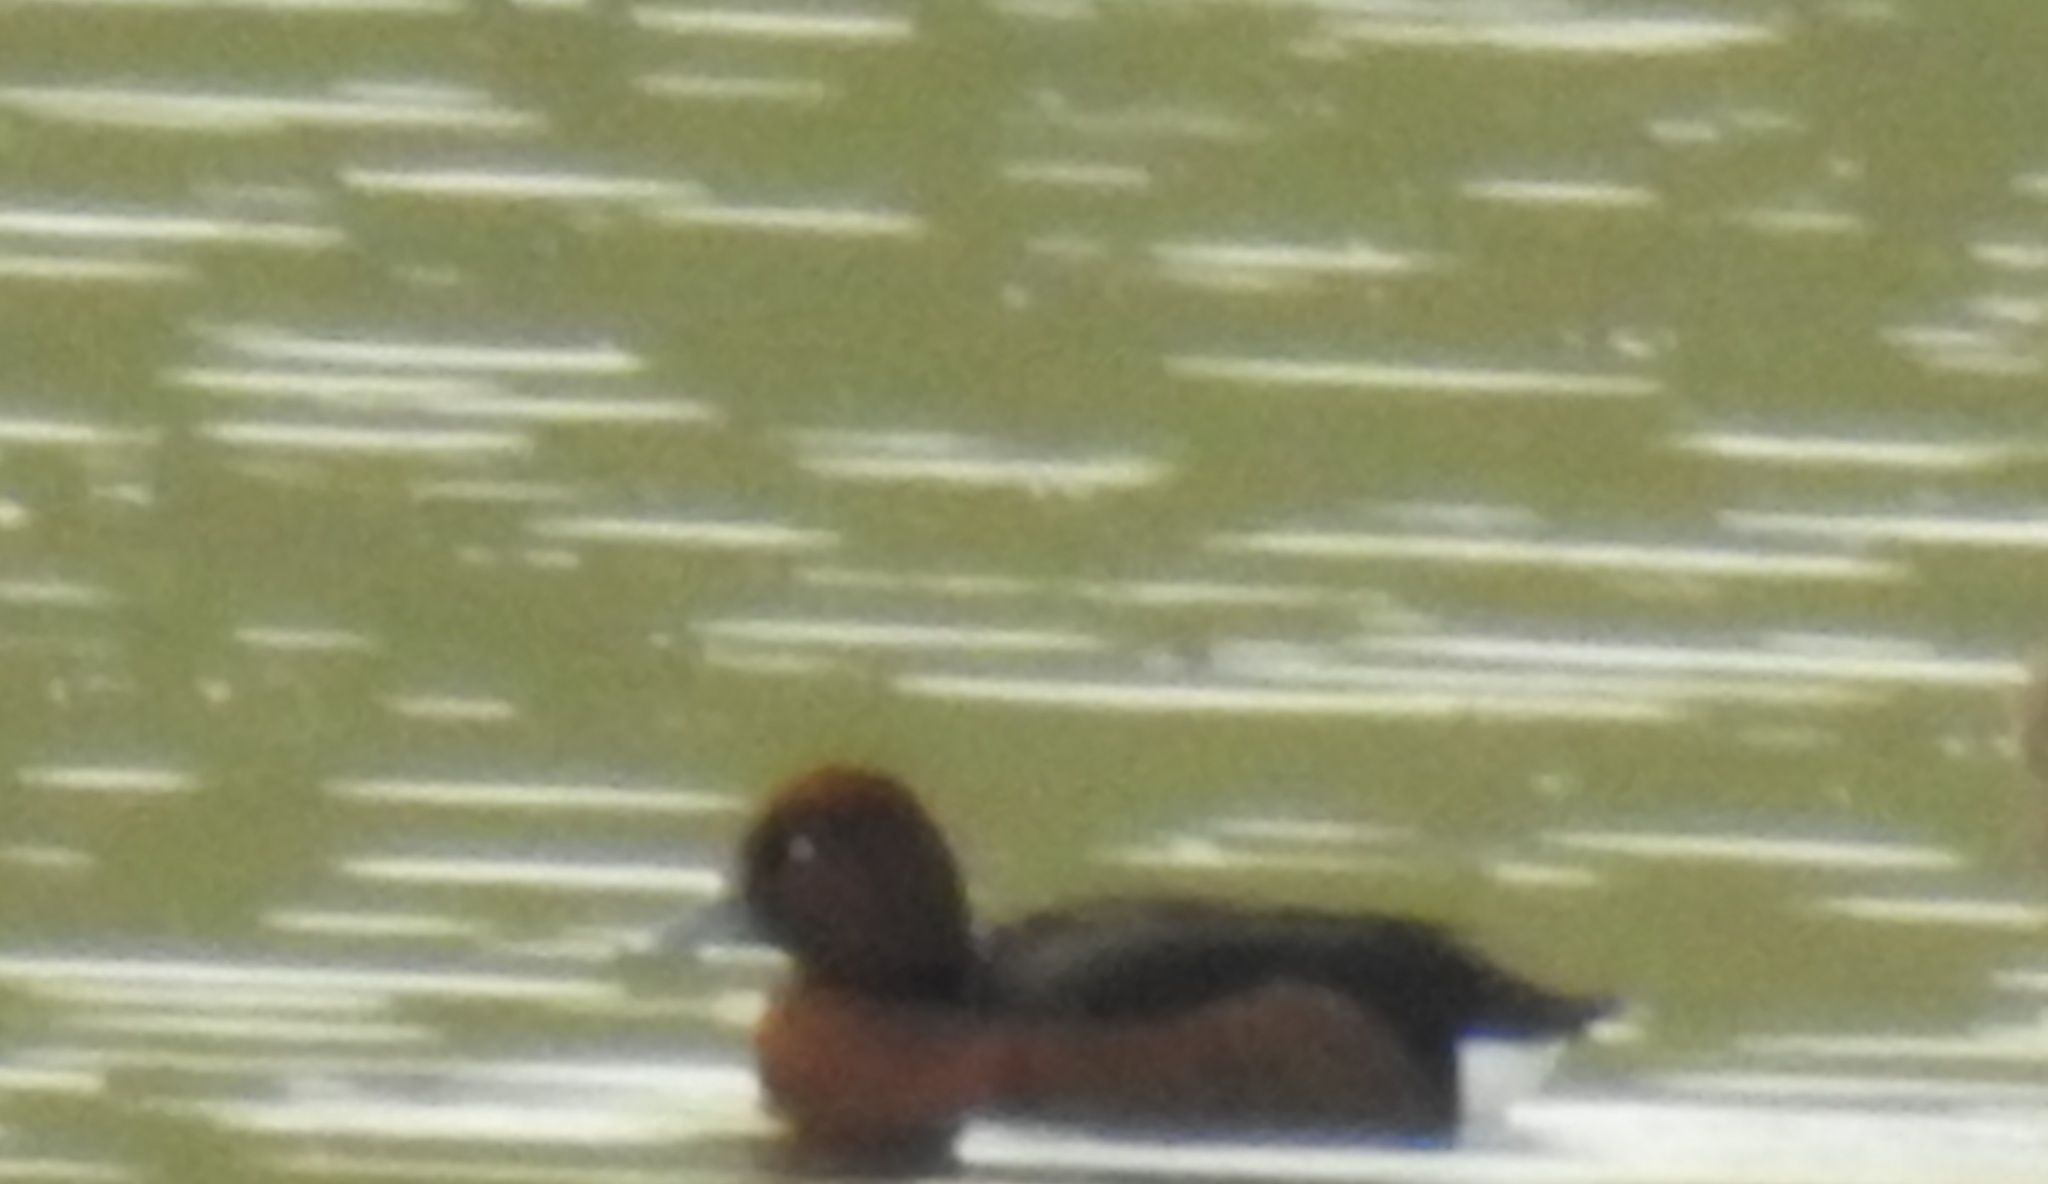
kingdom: Animalia
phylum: Chordata
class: Aves
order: Anseriformes
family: Anatidae
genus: Aythya
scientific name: Aythya nyroca
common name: Ferruginous duck
